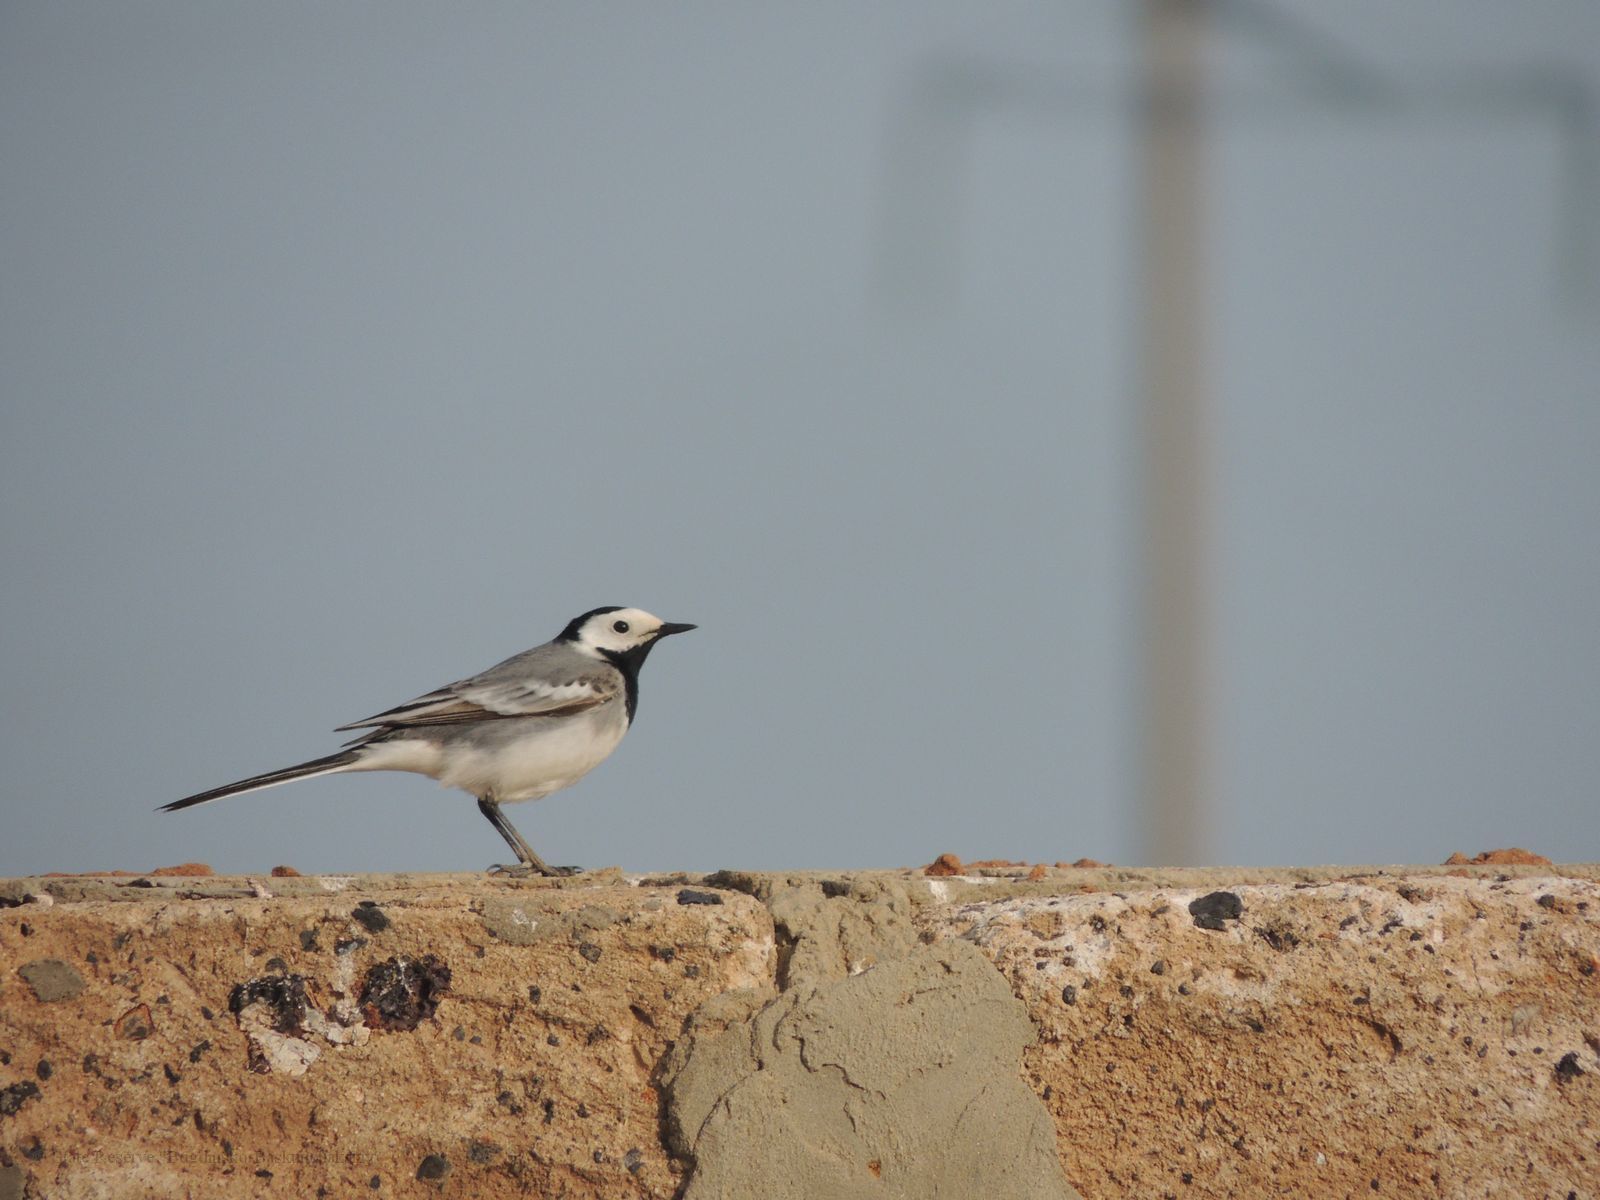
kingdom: Animalia
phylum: Chordata
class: Aves
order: Passeriformes
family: Motacillidae
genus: Motacilla
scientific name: Motacilla alba
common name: White wagtail
